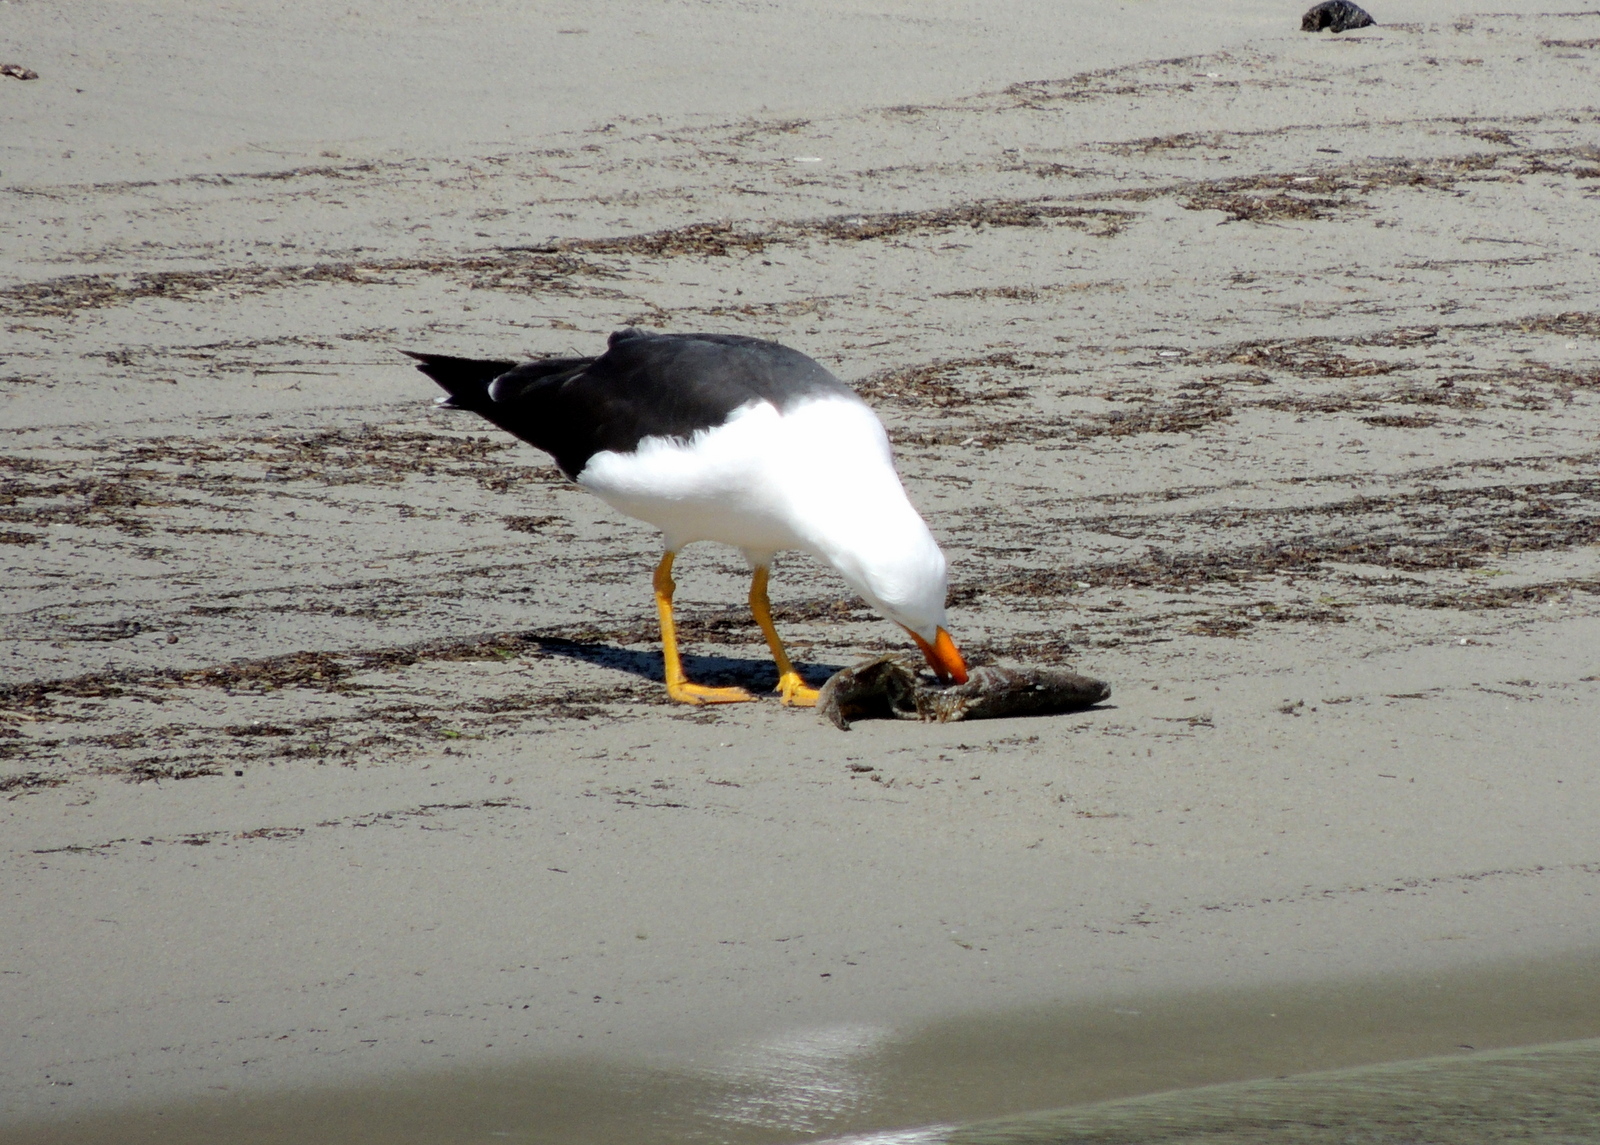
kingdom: Animalia
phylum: Chordata
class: Aves
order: Charadriiformes
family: Laridae
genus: Larus
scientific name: Larus pacificus
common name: Pacific gull
